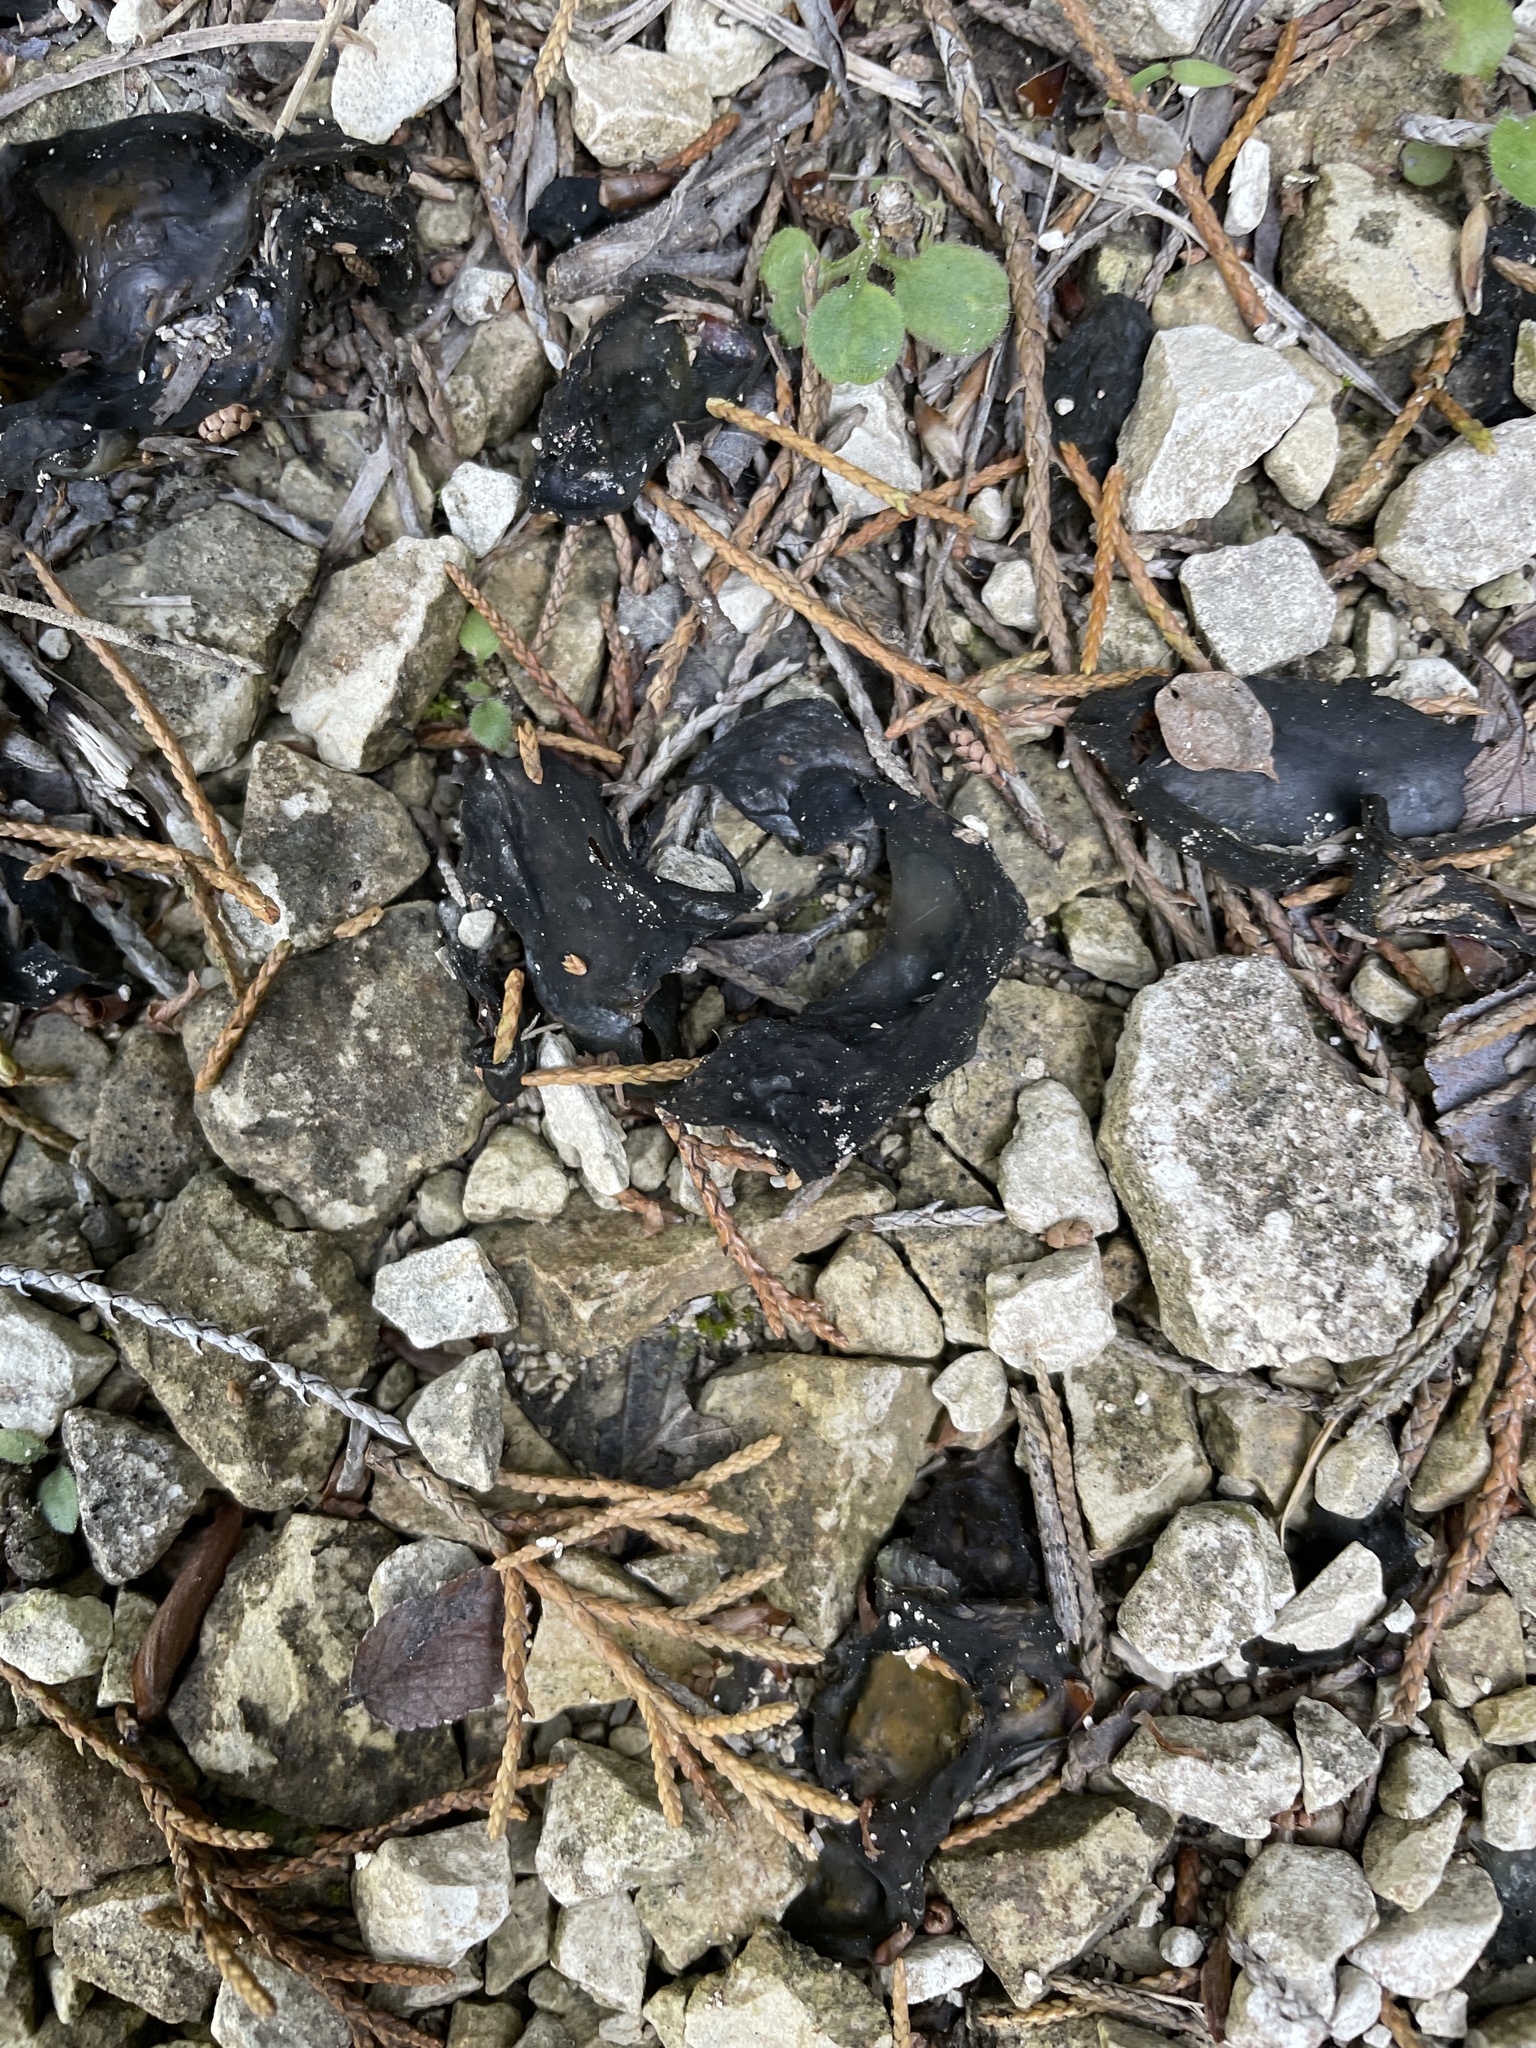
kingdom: Bacteria
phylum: Cyanobacteria
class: Cyanobacteriia
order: Cyanobacteriales
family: Nostocaceae
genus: Nostoc
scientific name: Nostoc commune
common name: Star jelly
